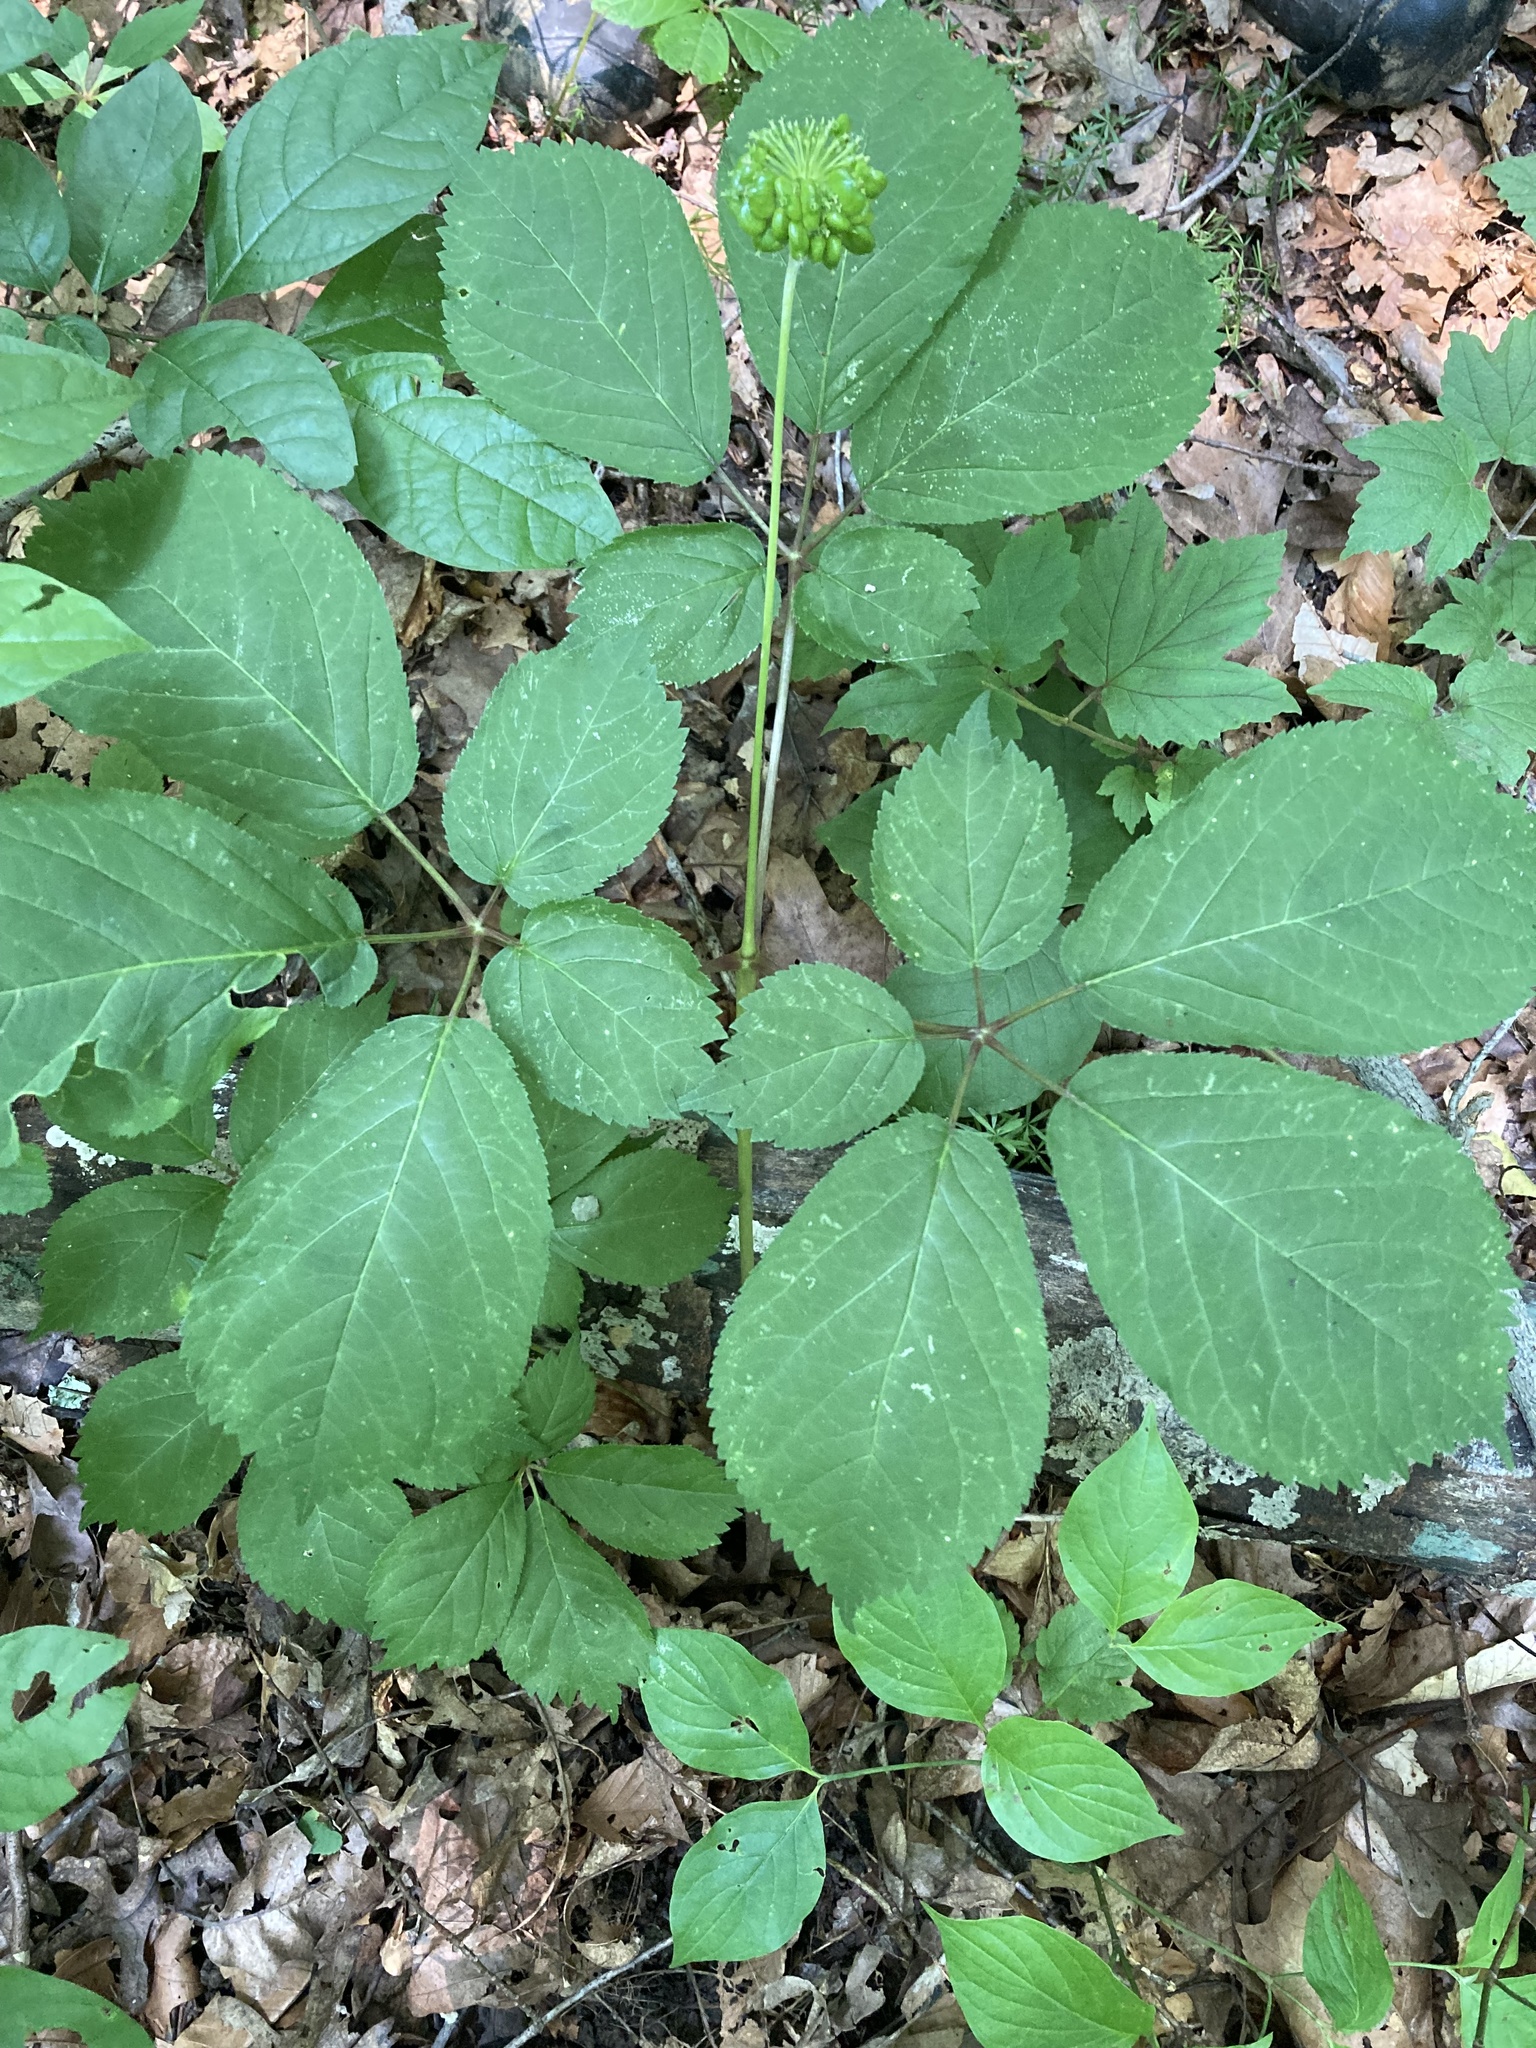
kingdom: Plantae
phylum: Tracheophyta
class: Magnoliopsida
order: Apiales
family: Araliaceae
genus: Panax
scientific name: Panax quinquefolius
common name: American ginseng
